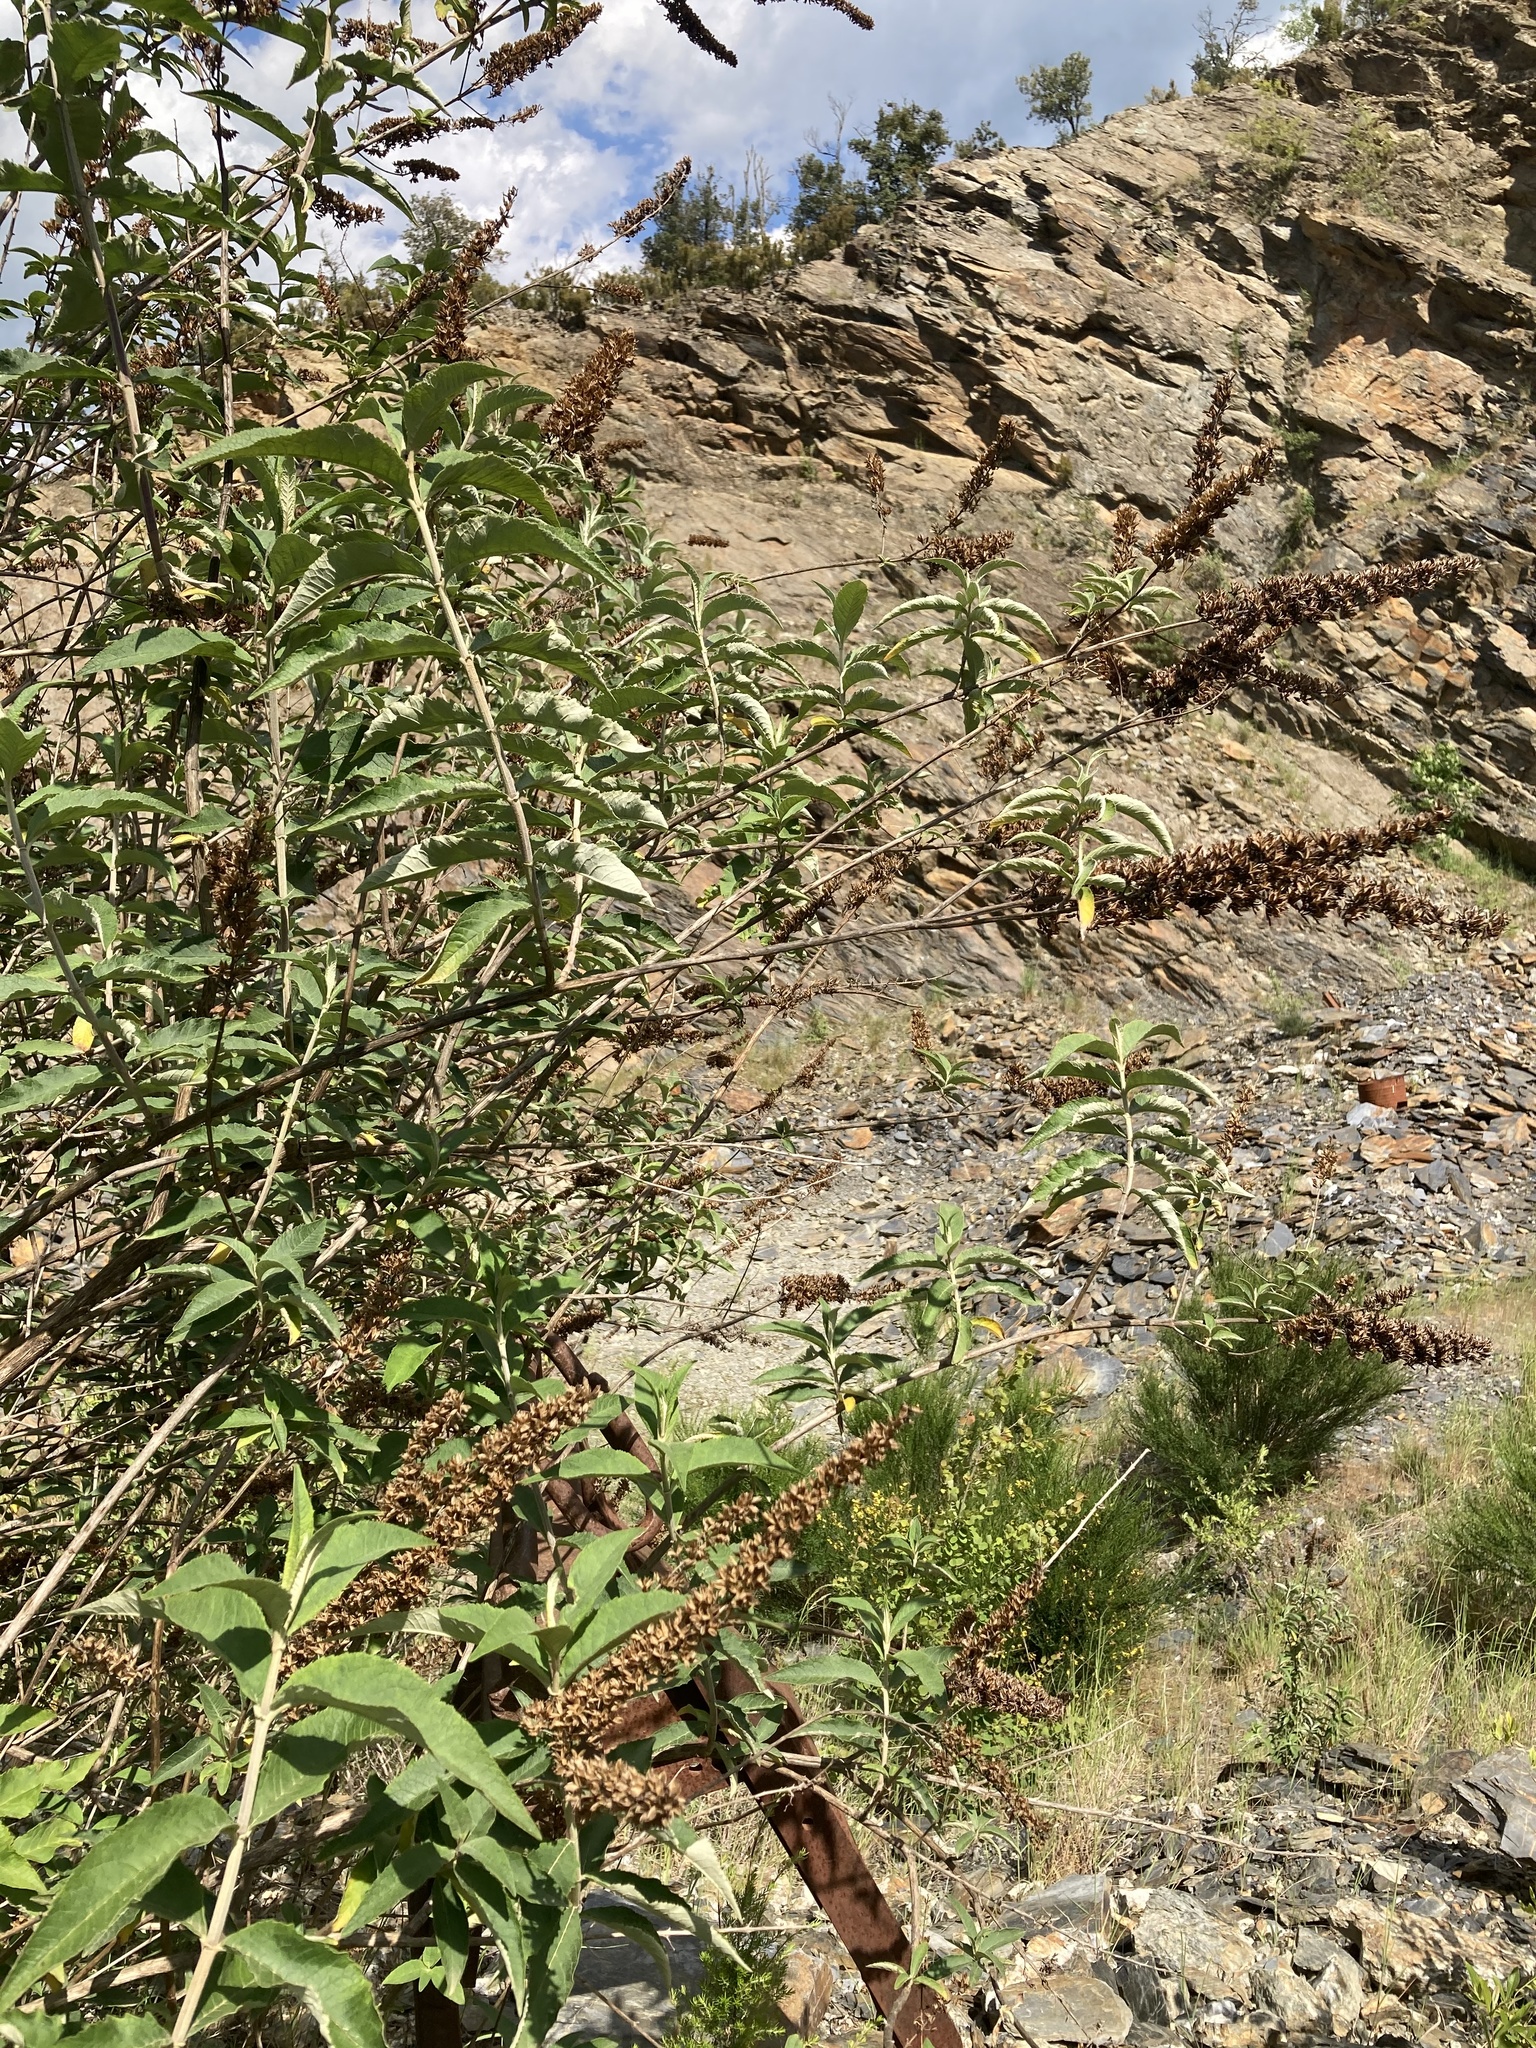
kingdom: Plantae
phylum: Tracheophyta
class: Magnoliopsida
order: Lamiales
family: Scrophulariaceae
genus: Buddleja
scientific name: Buddleja davidii
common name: Butterfly-bush
